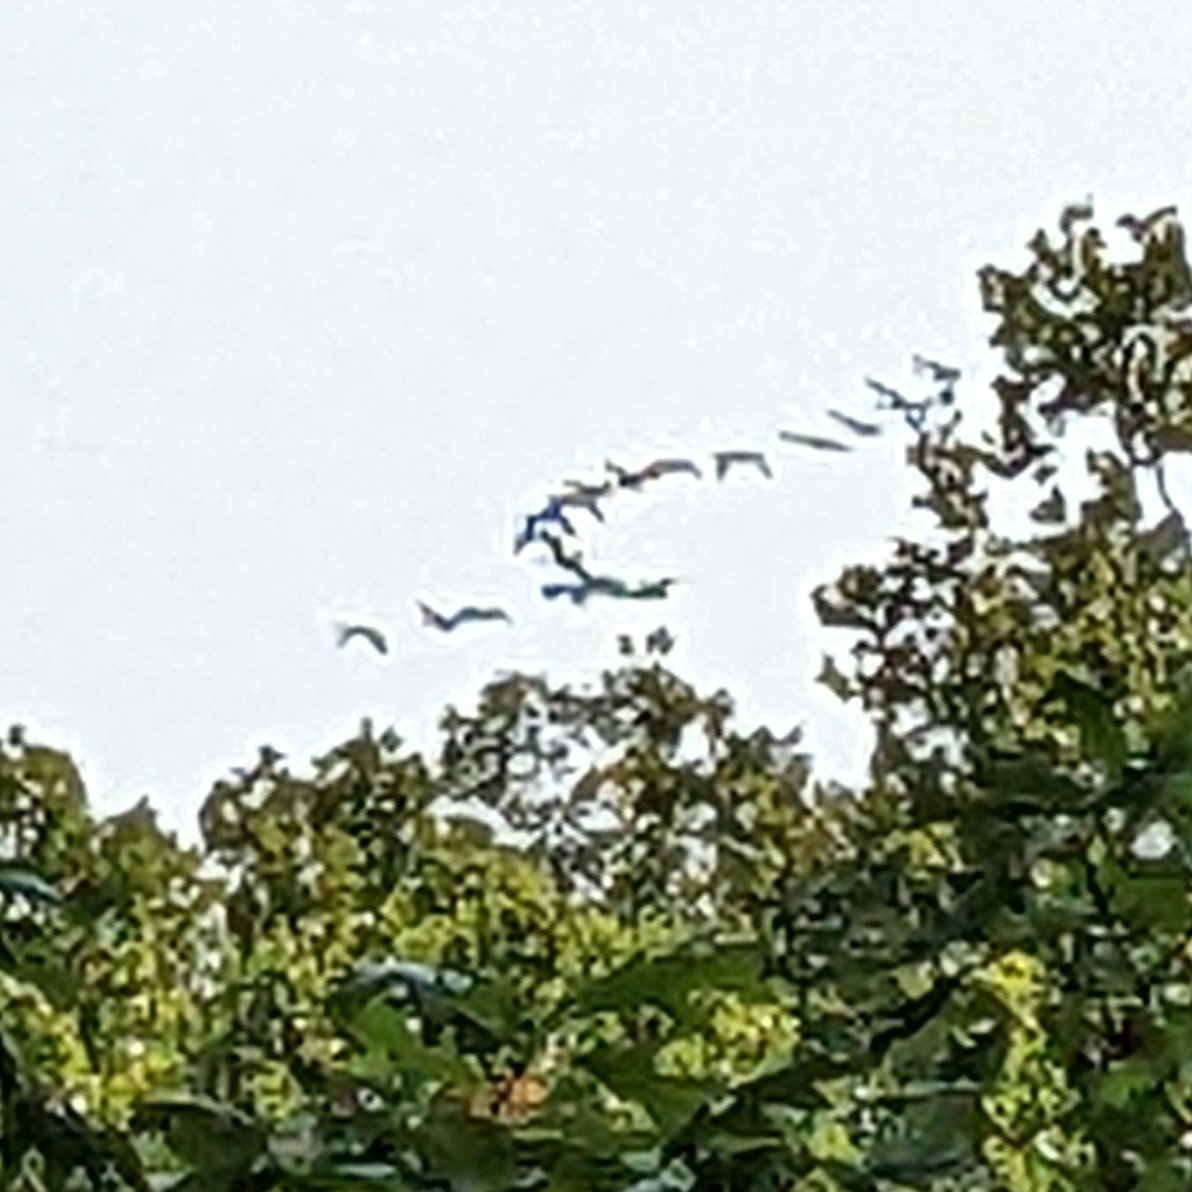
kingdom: Animalia
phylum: Chordata
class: Aves
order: Anseriformes
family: Anatidae
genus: Branta
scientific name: Branta canadensis
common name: Canada goose
